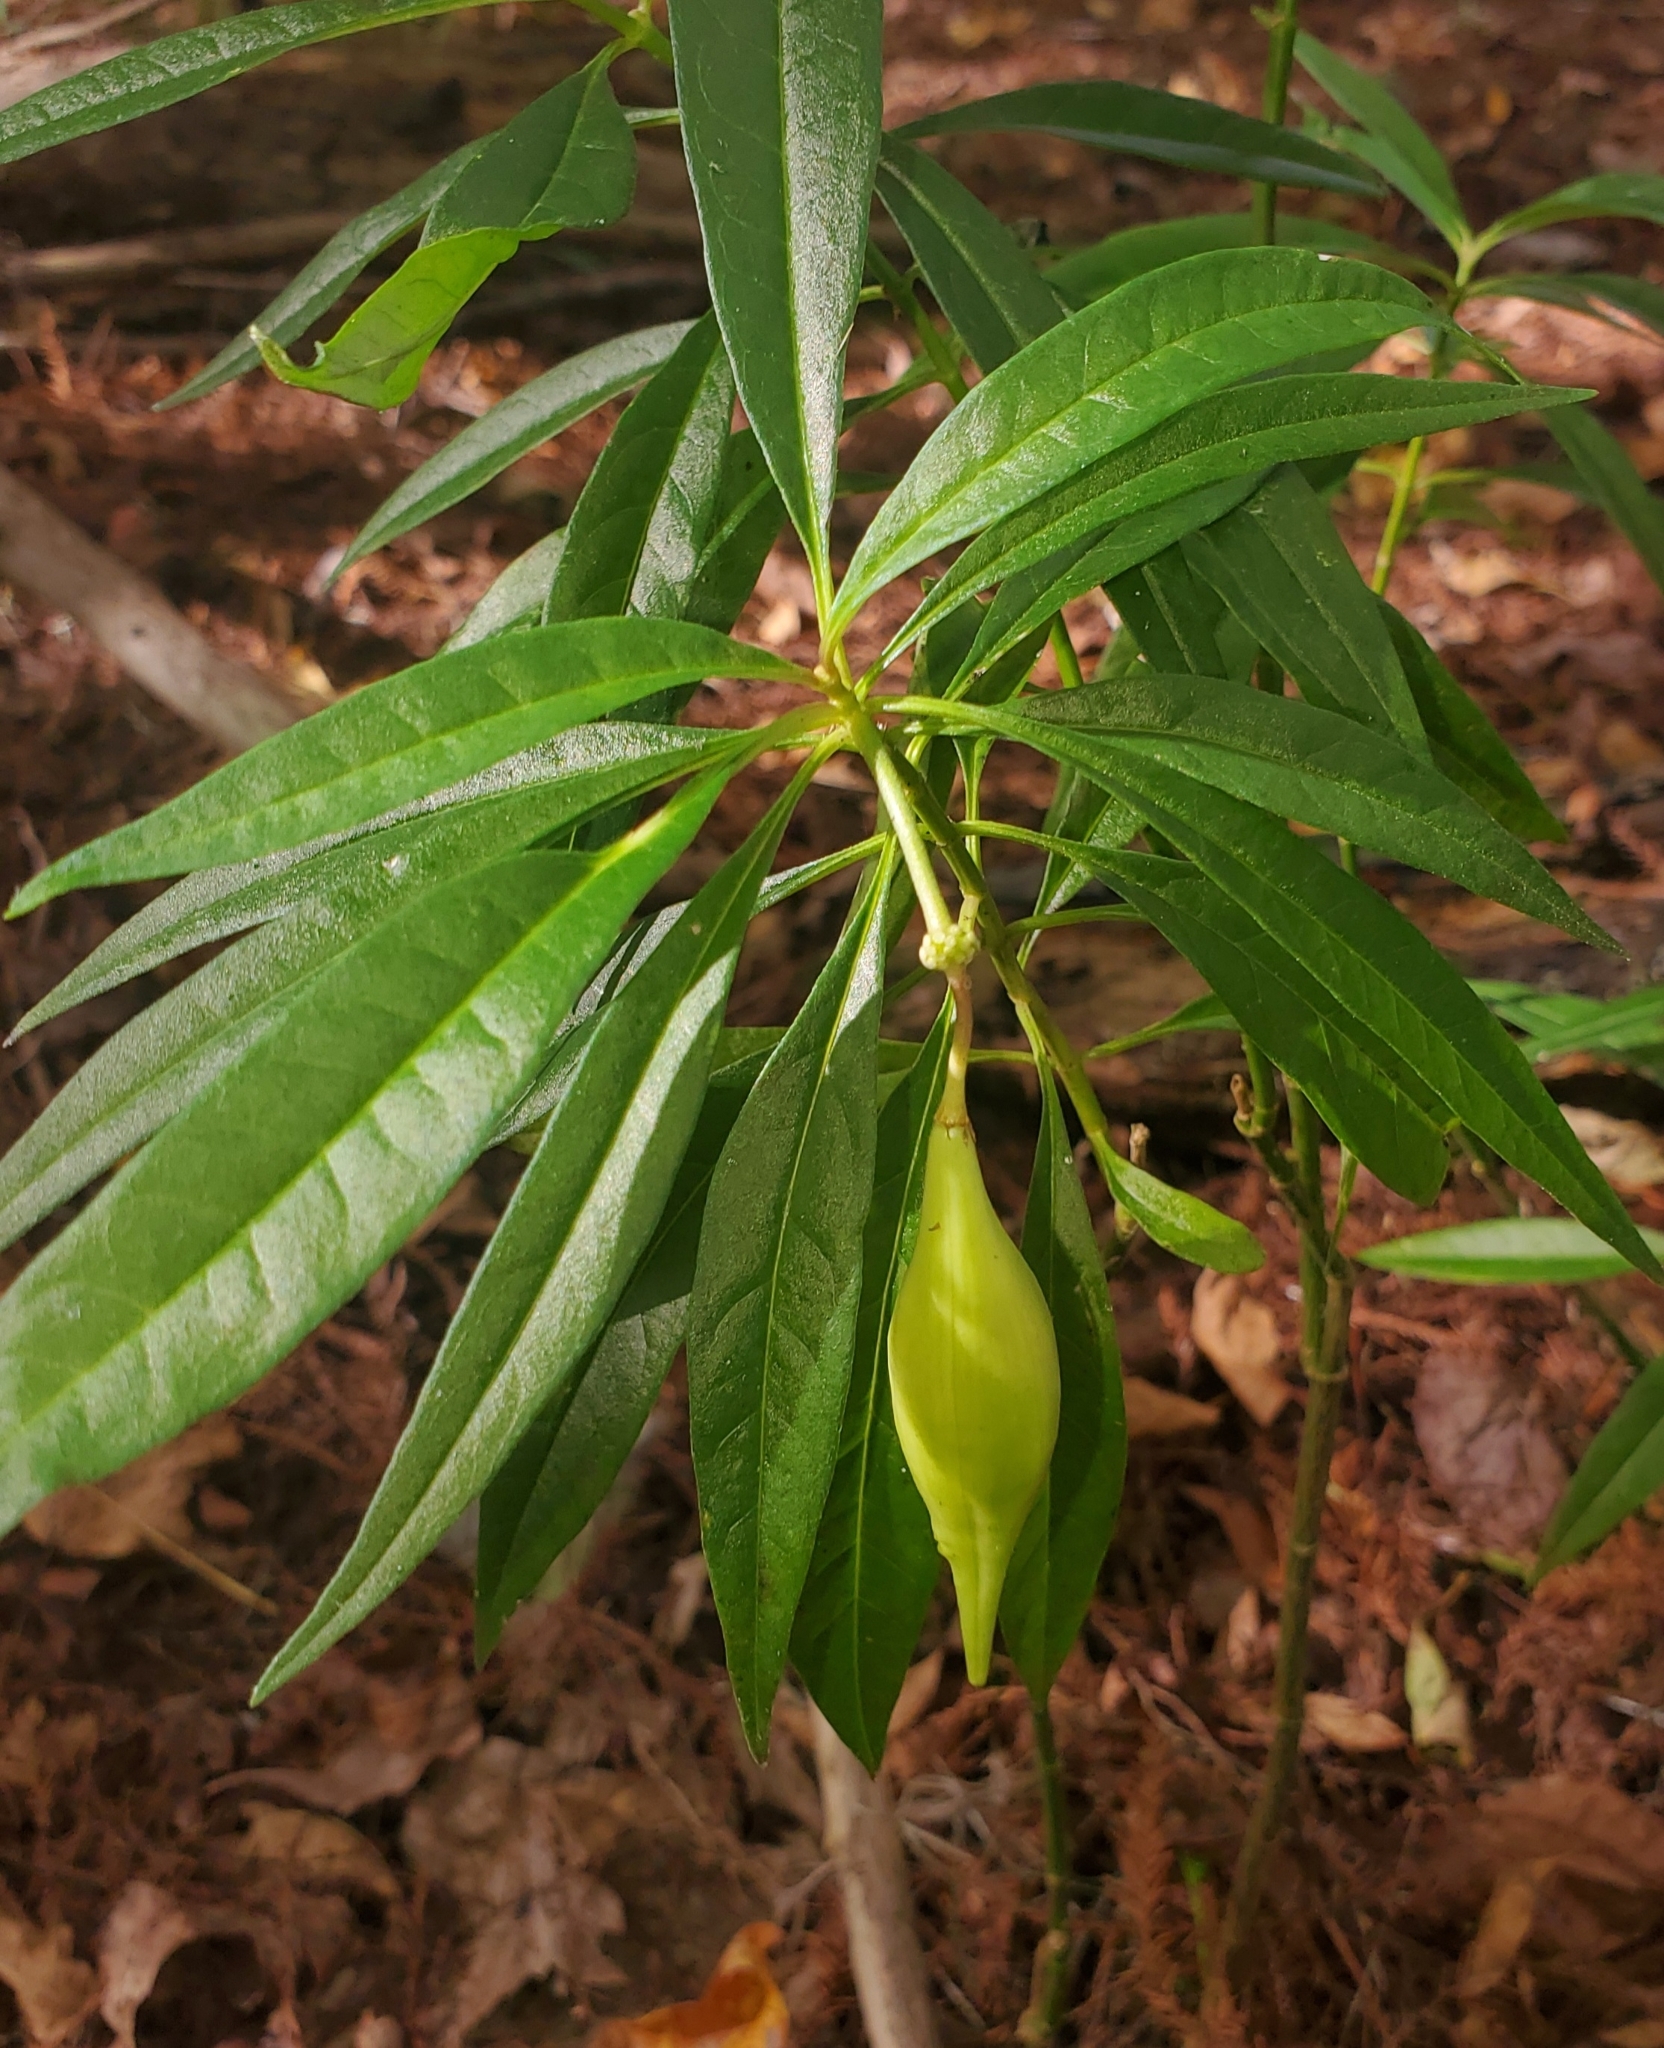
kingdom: Plantae
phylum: Tracheophyta
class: Magnoliopsida
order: Gentianales
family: Apocynaceae
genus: Asclepias
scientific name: Asclepias perennis
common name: Smooth-seed milkweed
